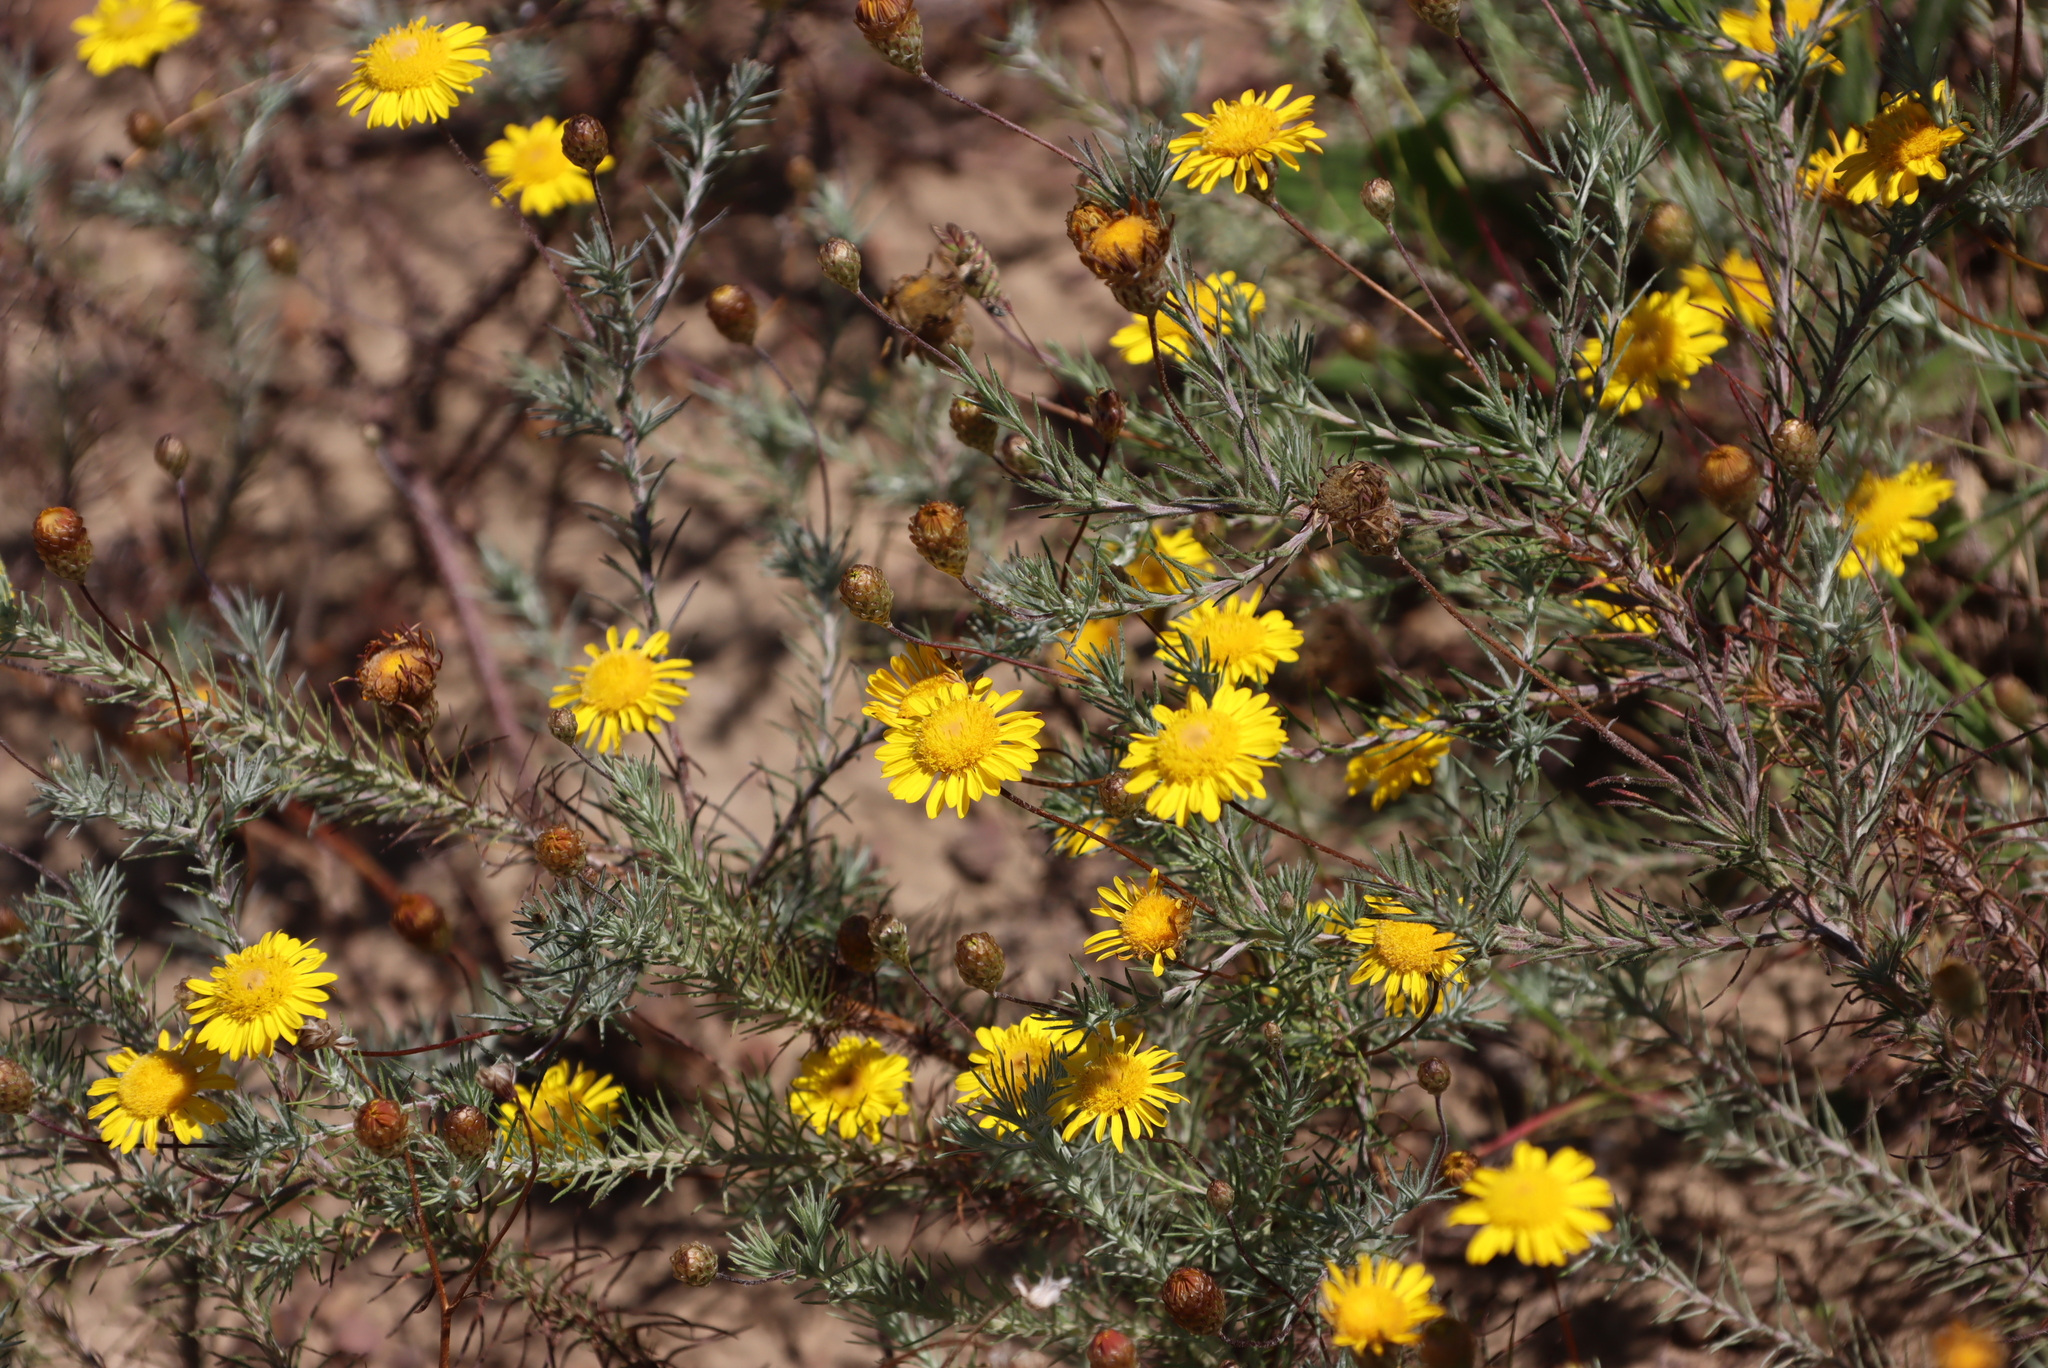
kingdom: Plantae
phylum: Tracheophyta
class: Magnoliopsida
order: Asterales
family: Asteraceae
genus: Leysera
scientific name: Leysera gnaphalodes
